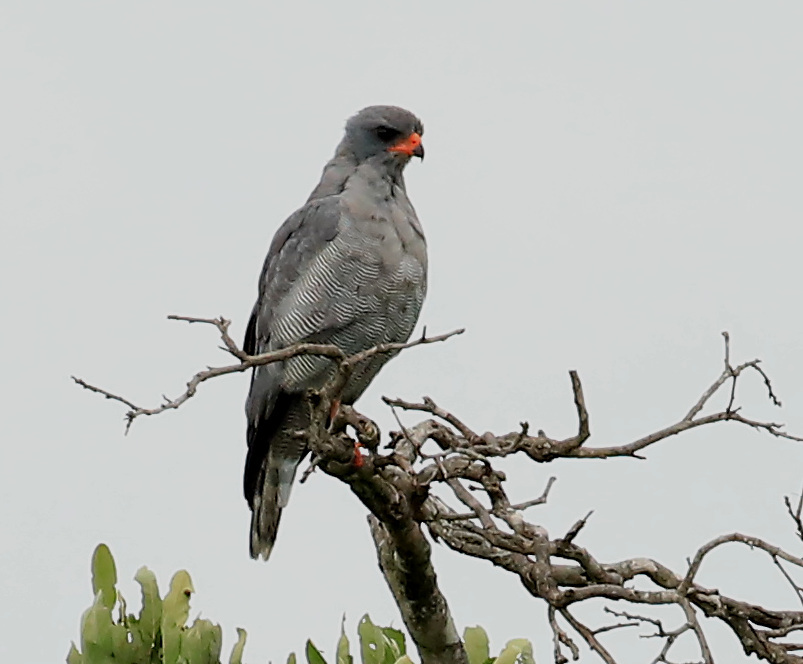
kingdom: Animalia
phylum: Chordata
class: Aves
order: Accipitriformes
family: Accipitridae
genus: Melierax
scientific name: Melierax metabates
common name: Dark chanting-goshawk
